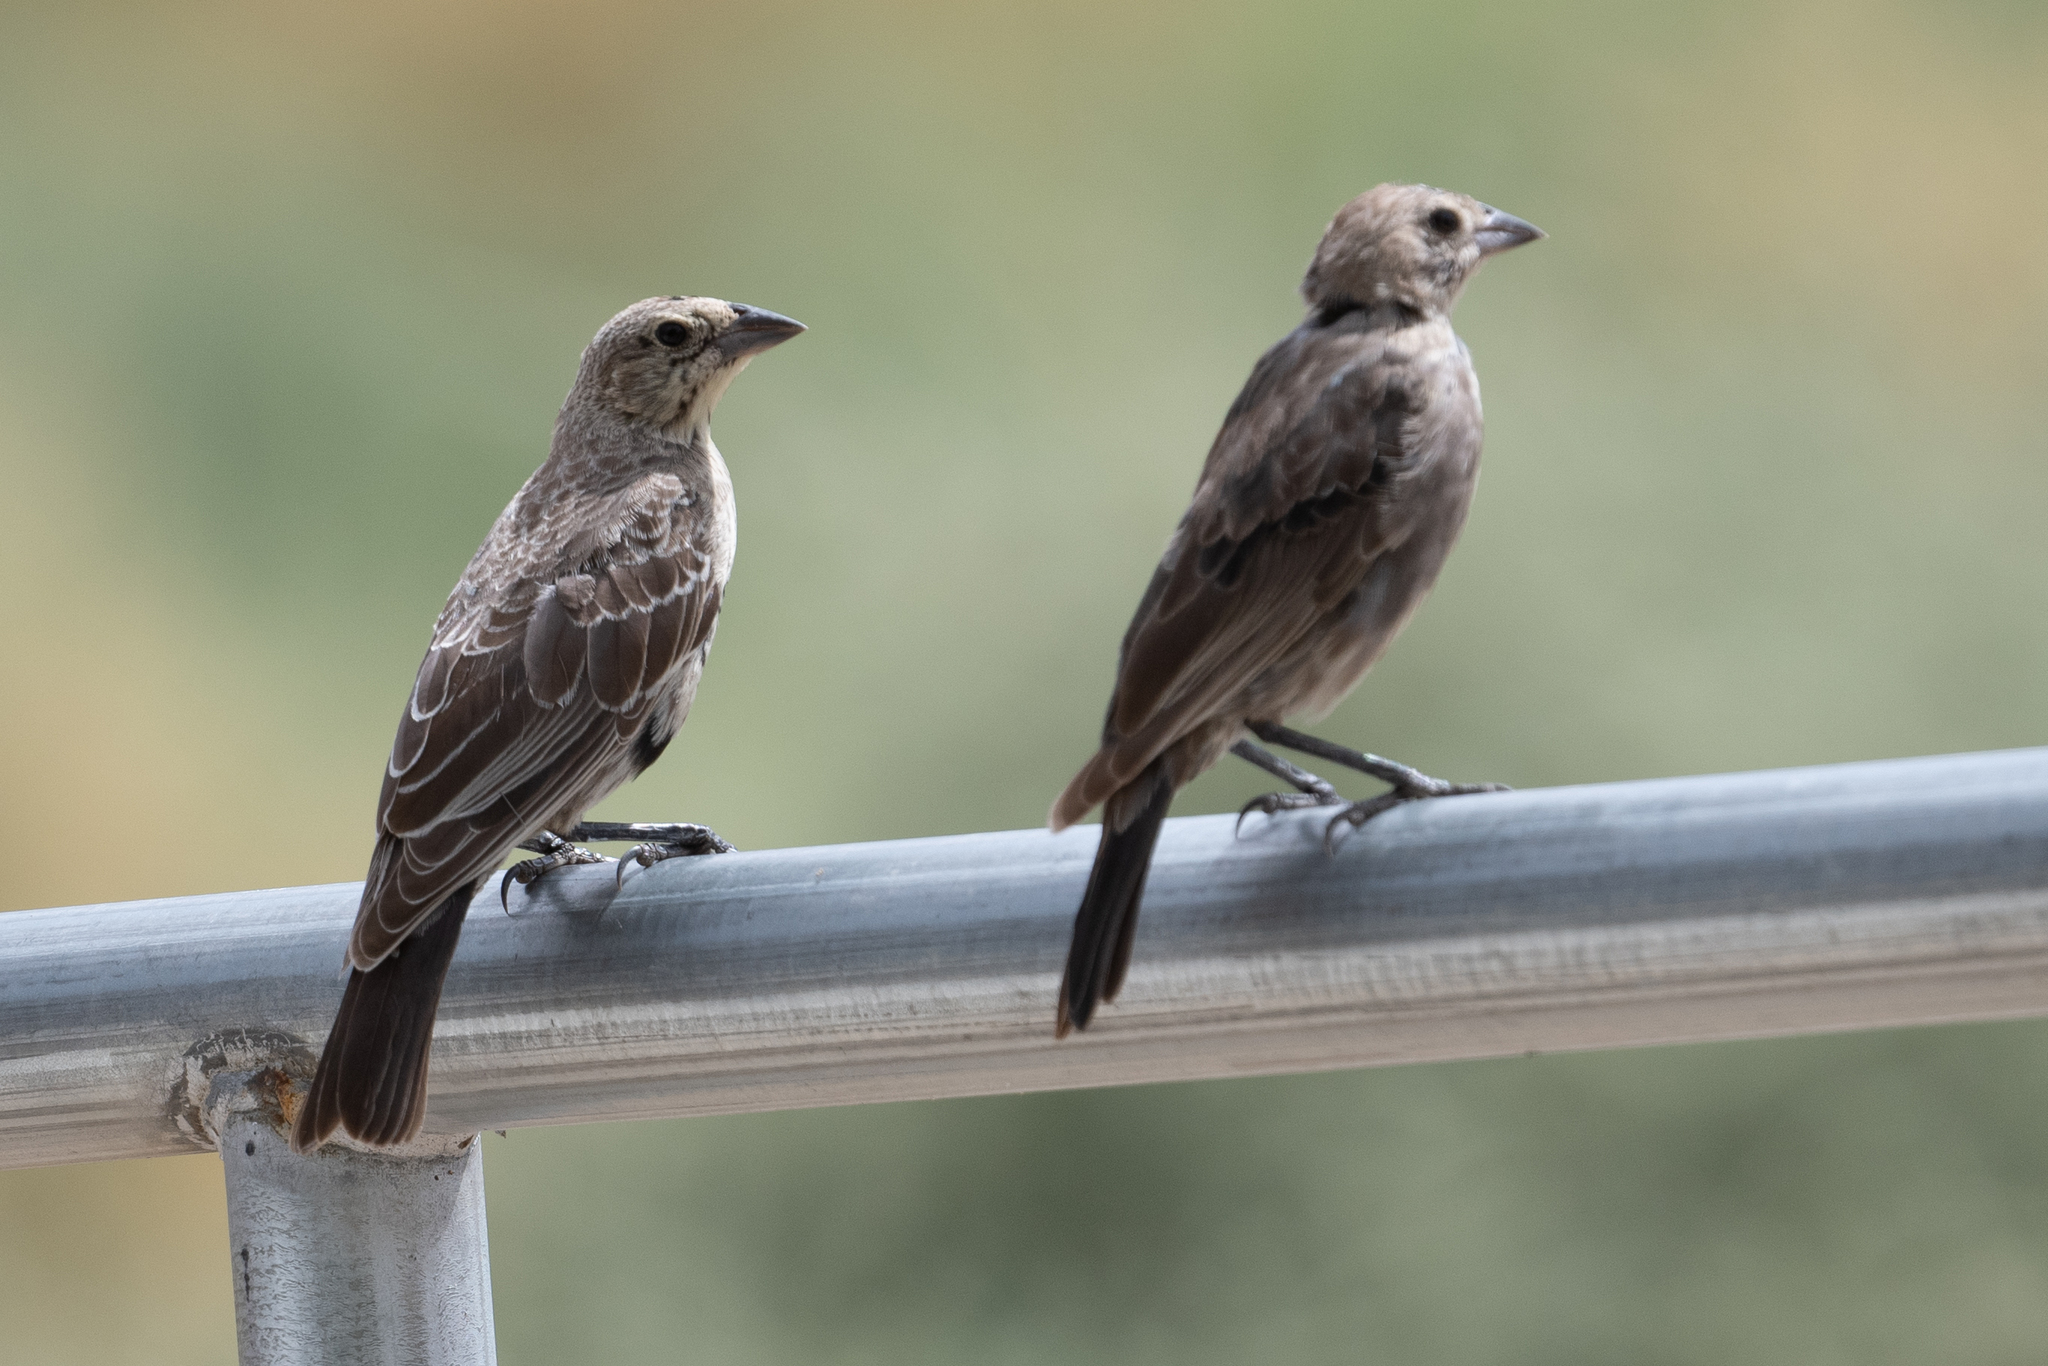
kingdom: Animalia
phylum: Chordata
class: Aves
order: Passeriformes
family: Icteridae
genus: Molothrus
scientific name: Molothrus ater
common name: Brown-headed cowbird
